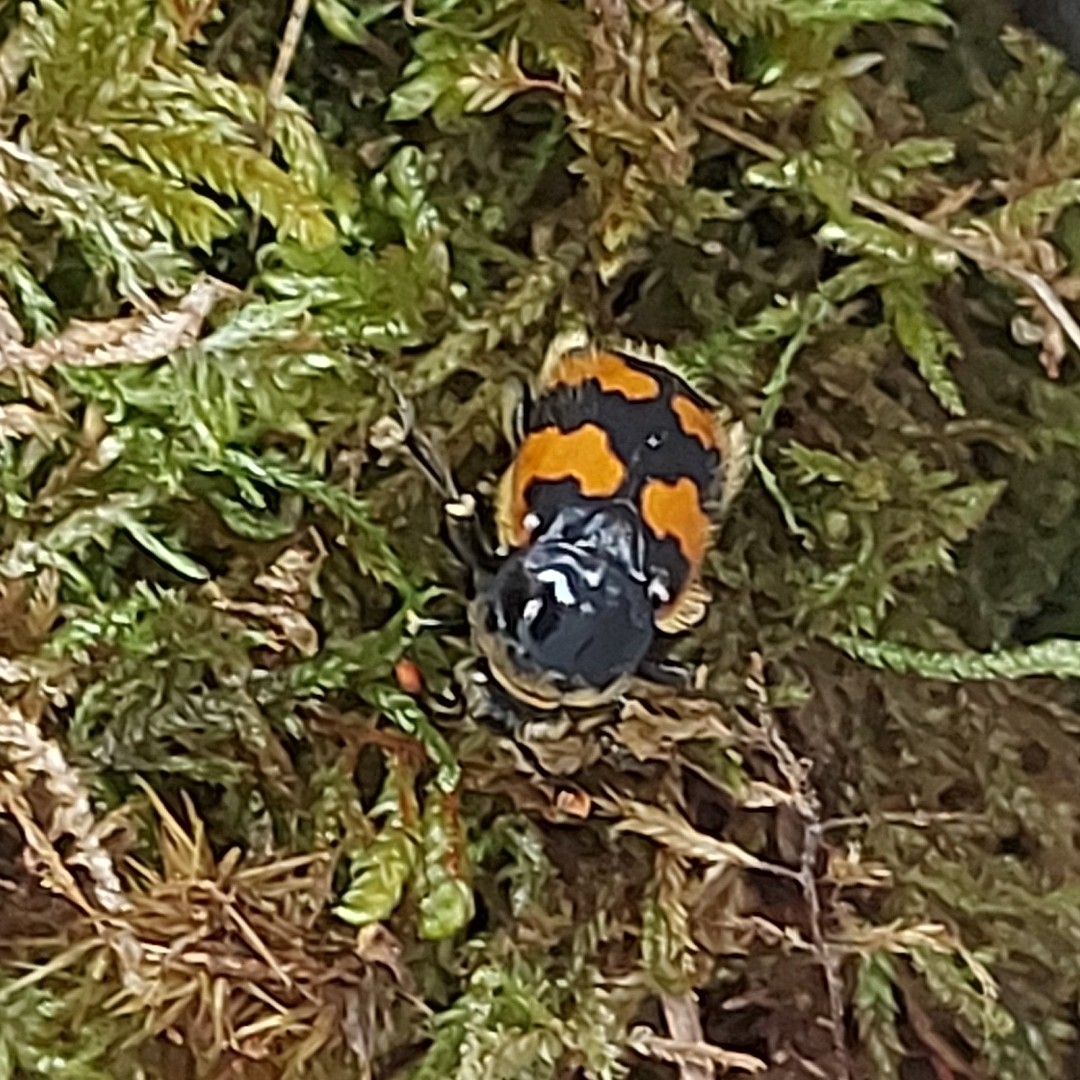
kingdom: Animalia
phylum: Arthropoda
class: Insecta
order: Coleoptera
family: Staphylinidae
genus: Nicrophorus
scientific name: Nicrophorus vespillo
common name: Common burying beetle
